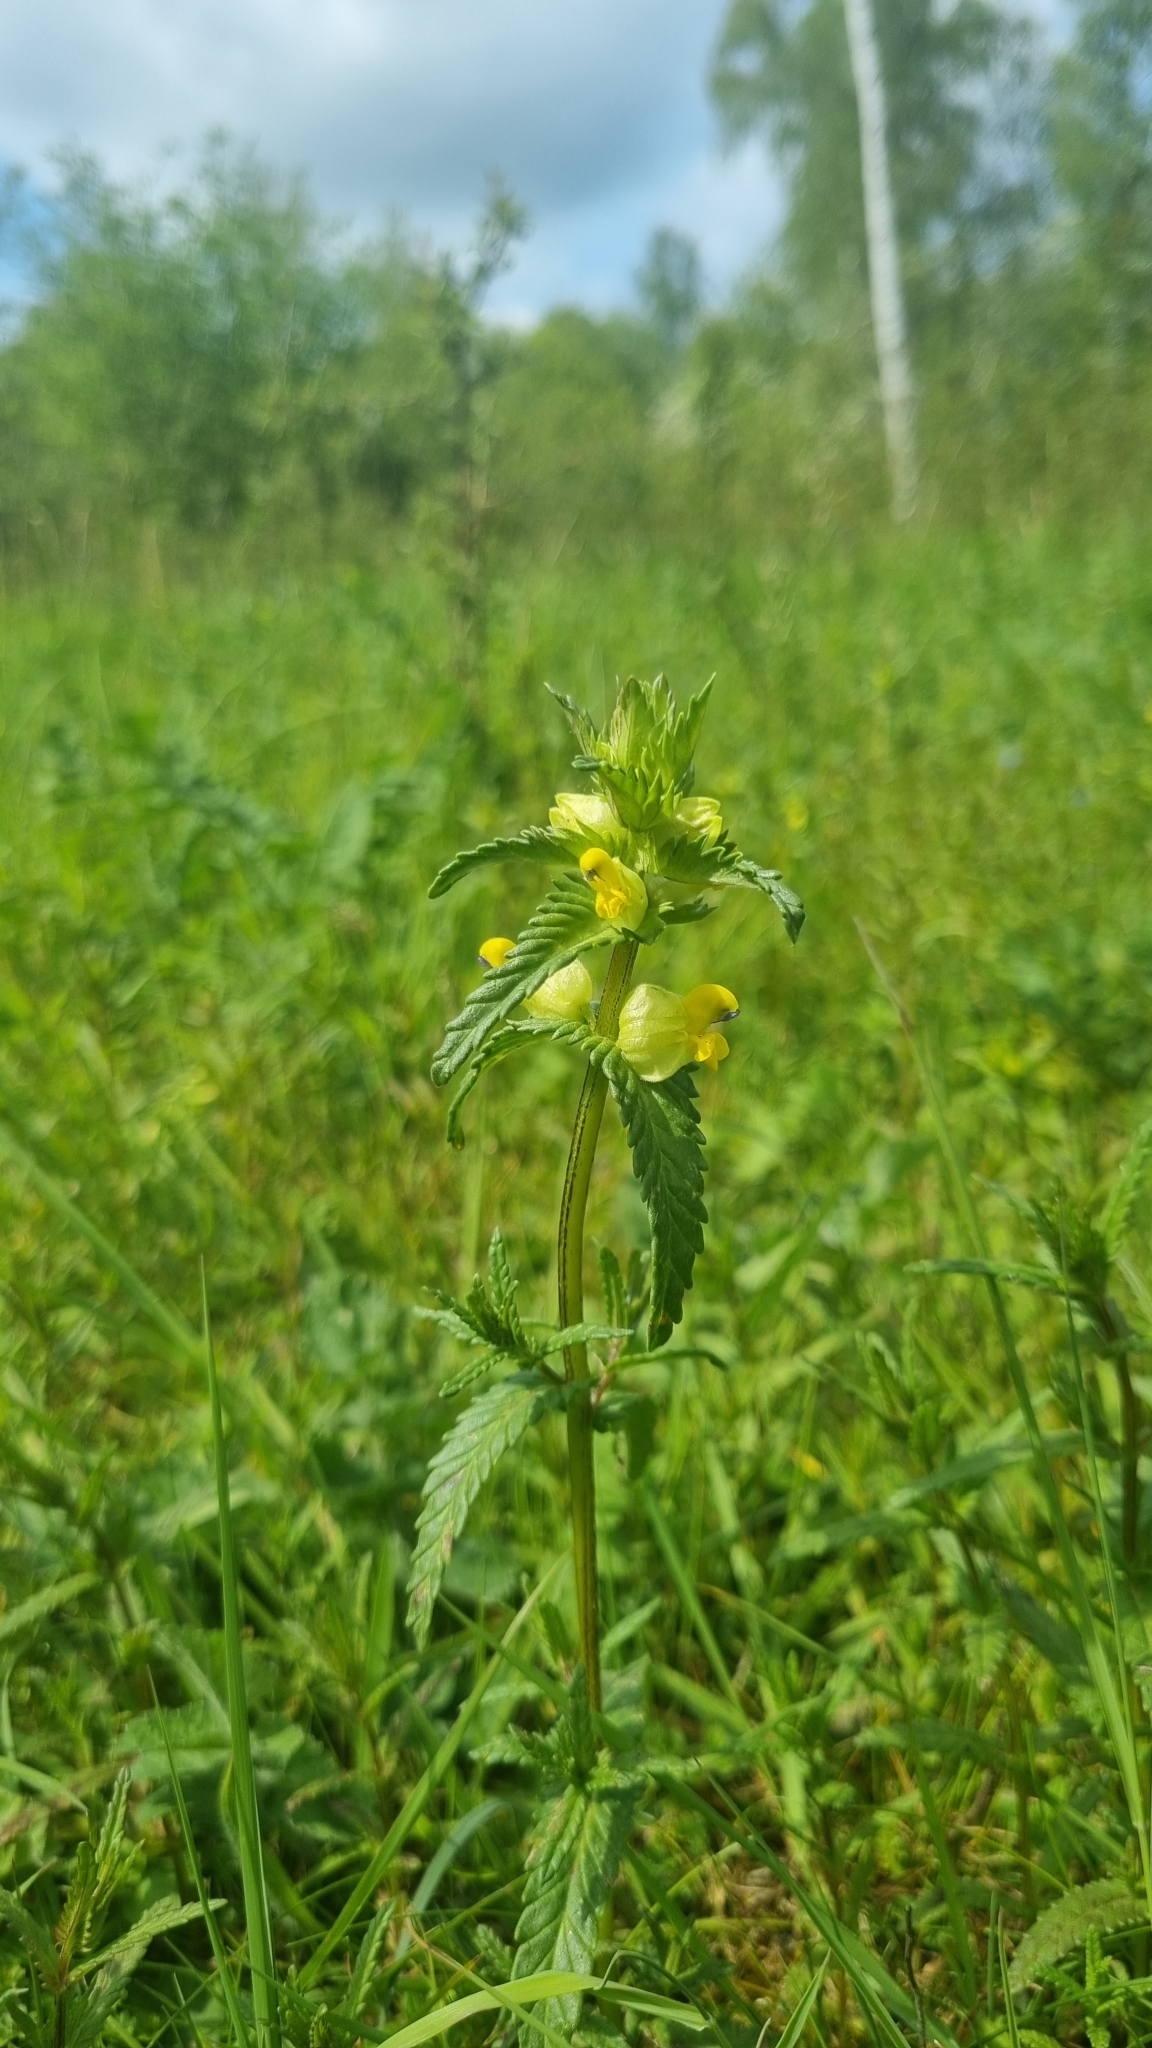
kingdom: Plantae
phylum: Tracheophyta
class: Magnoliopsida
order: Lamiales
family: Orobanchaceae
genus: Rhinanthus
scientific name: Rhinanthus minor
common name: Yellow-rattle
